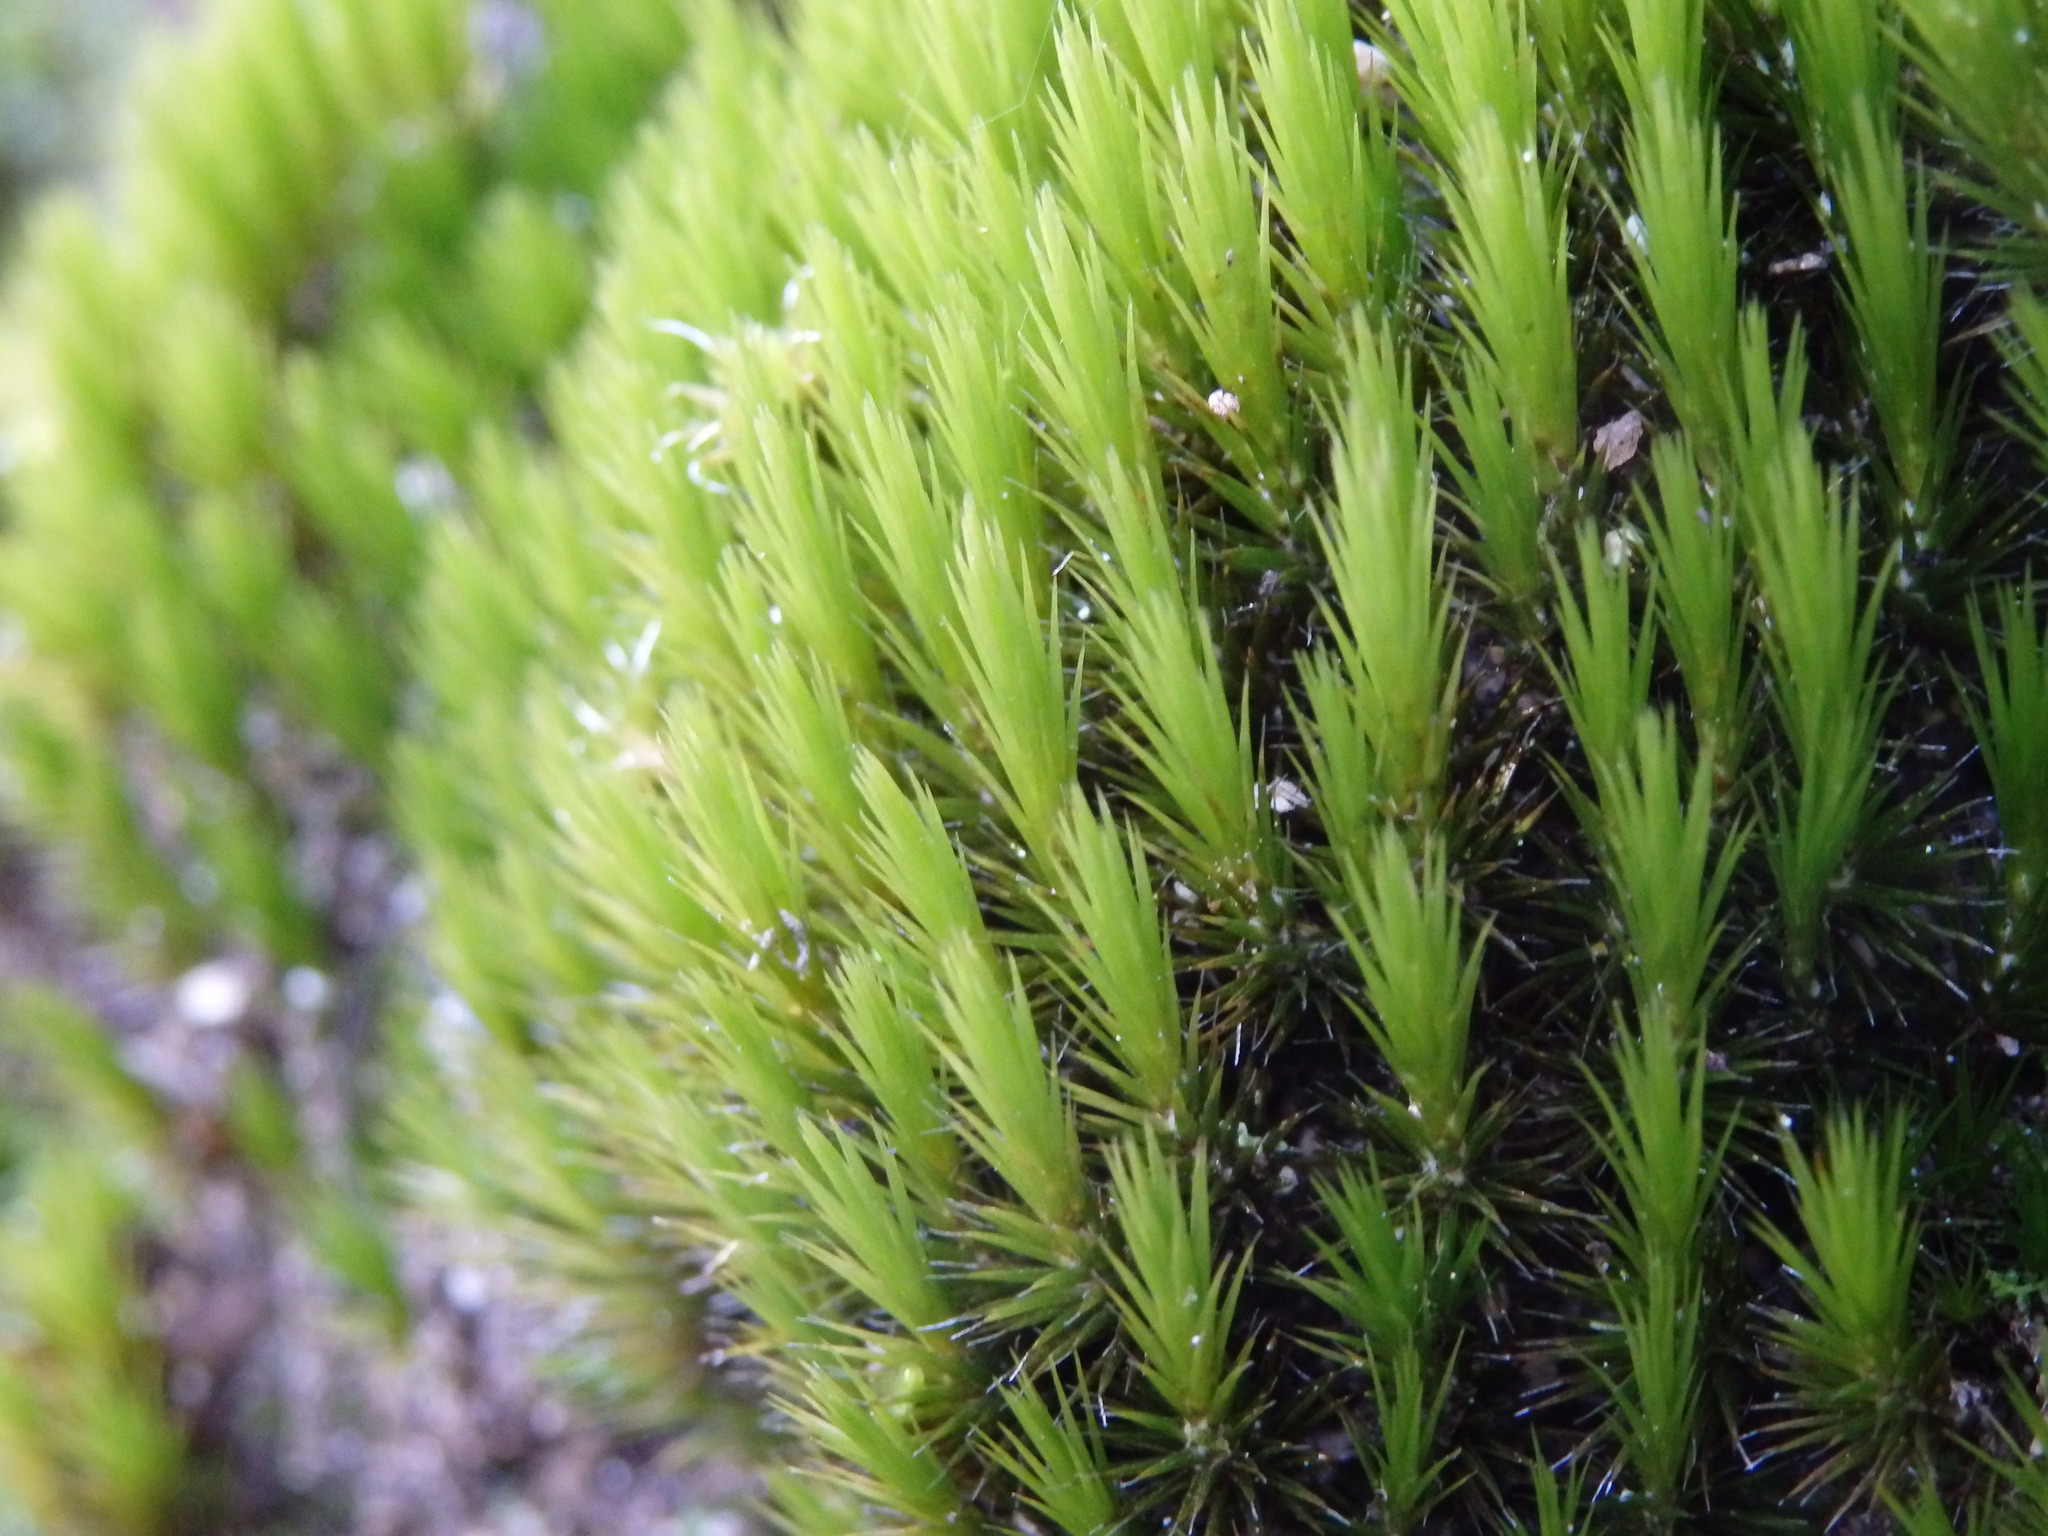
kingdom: Plantae
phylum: Bryophyta
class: Bryopsida
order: Dicranales
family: Leucobryaceae
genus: Campylopus
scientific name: Campylopus introflexus
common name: Heath star moss
